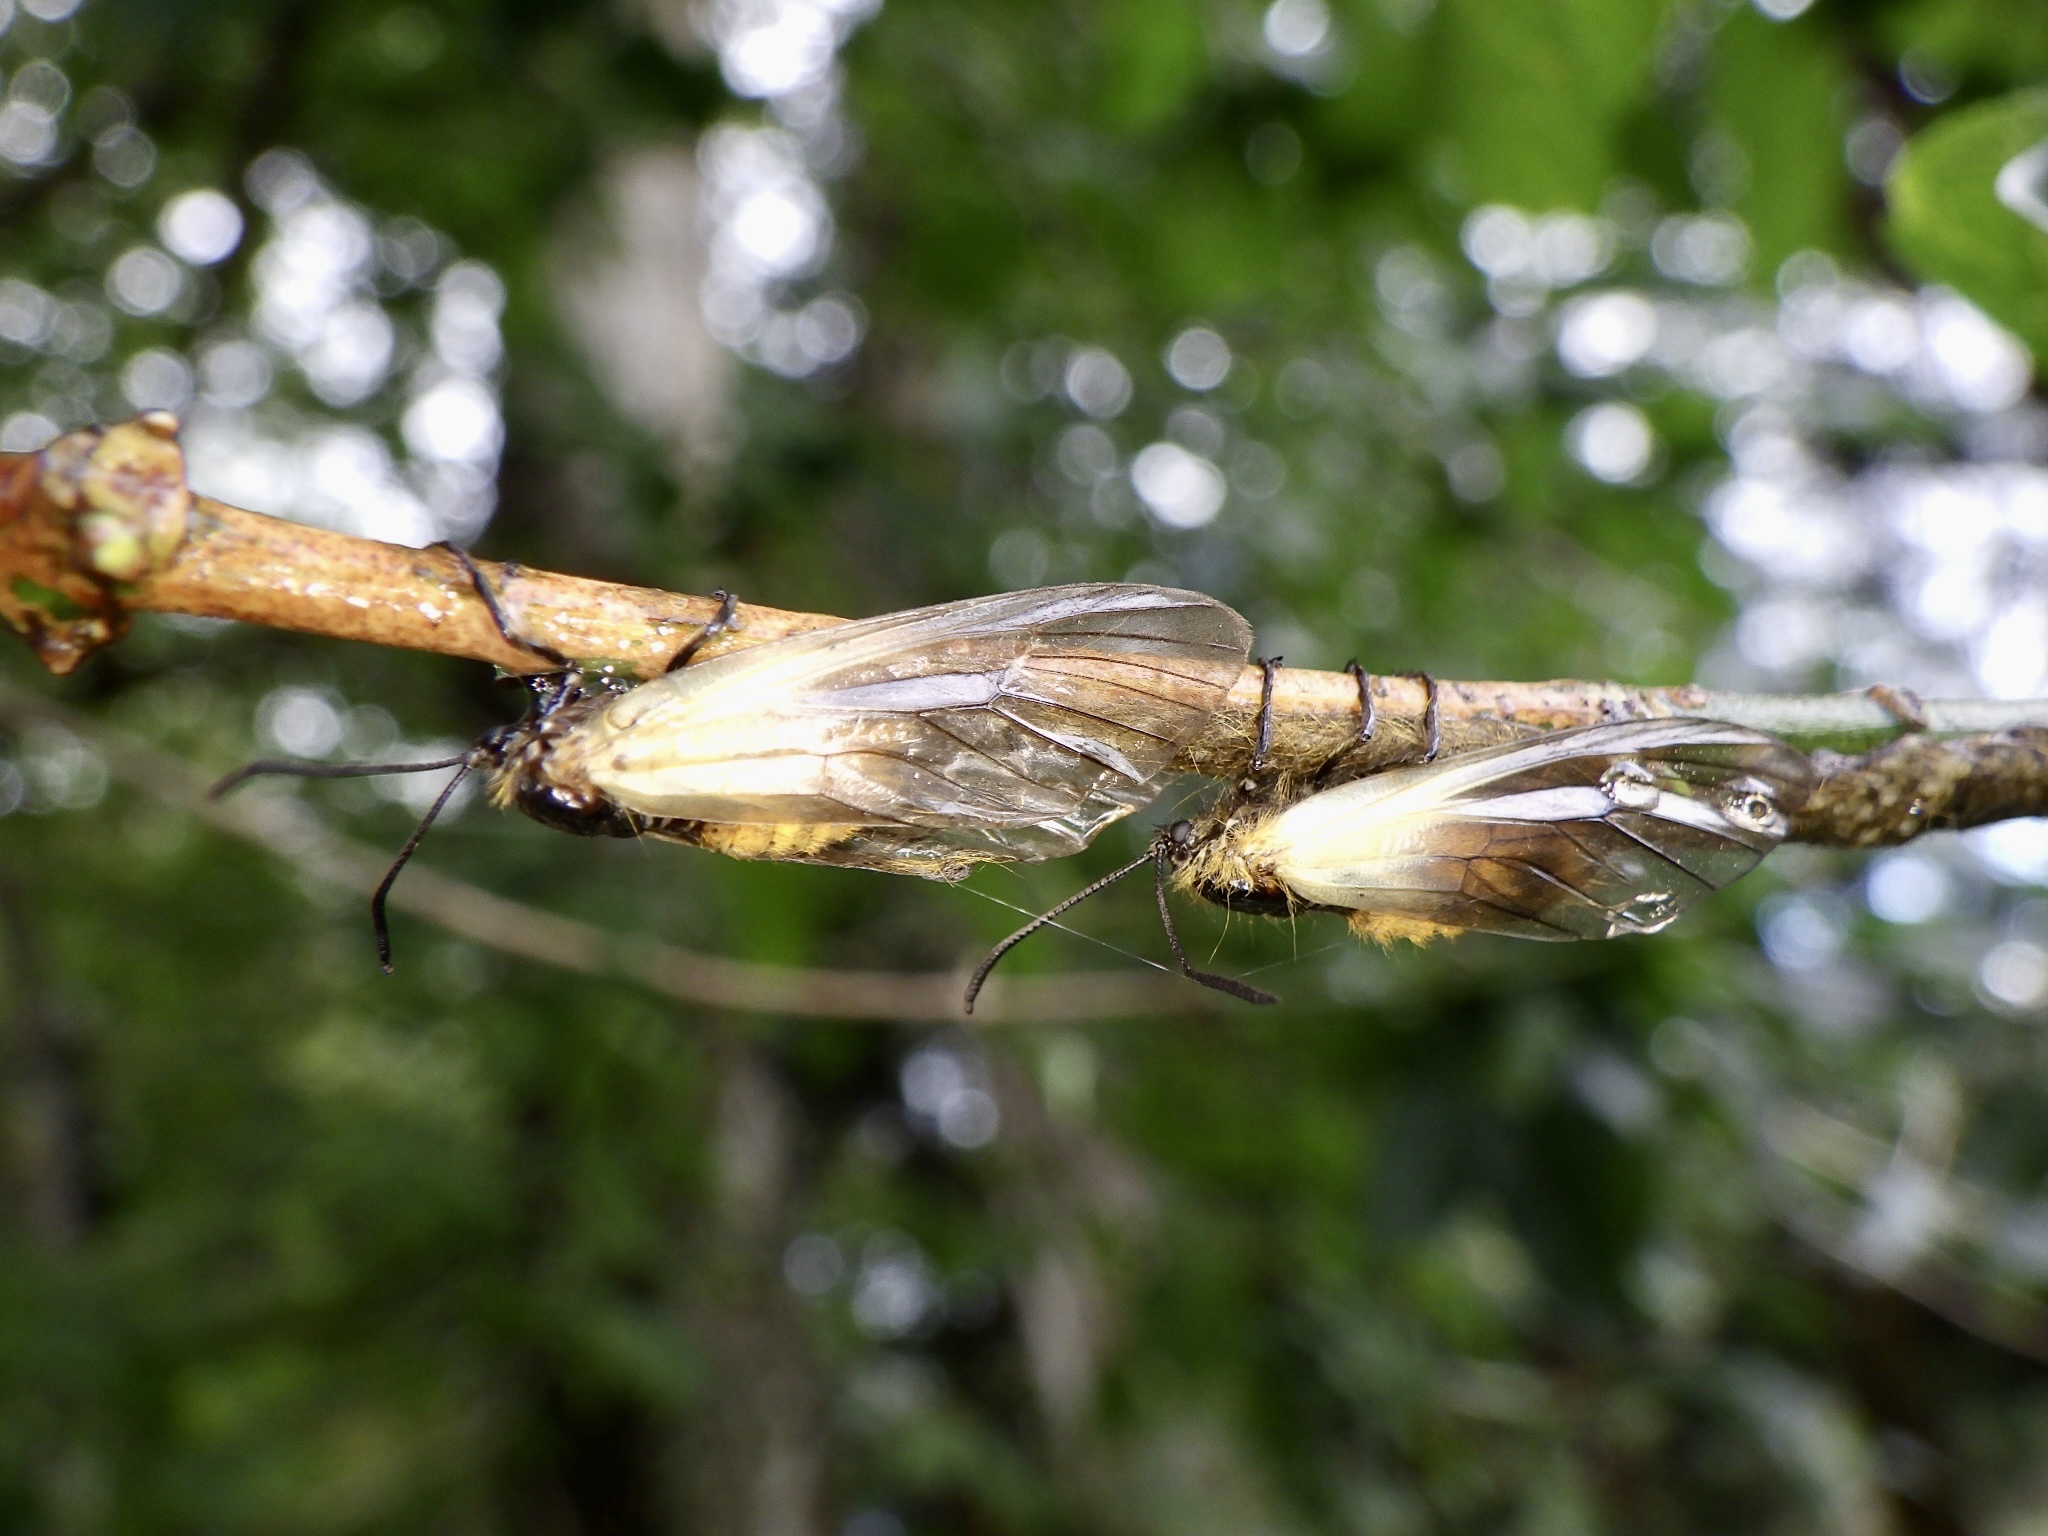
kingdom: Animalia
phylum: Arthropoda
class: Insecta
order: Lepidoptera
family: Zygaenidae
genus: Sinica
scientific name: Sinica sinica
